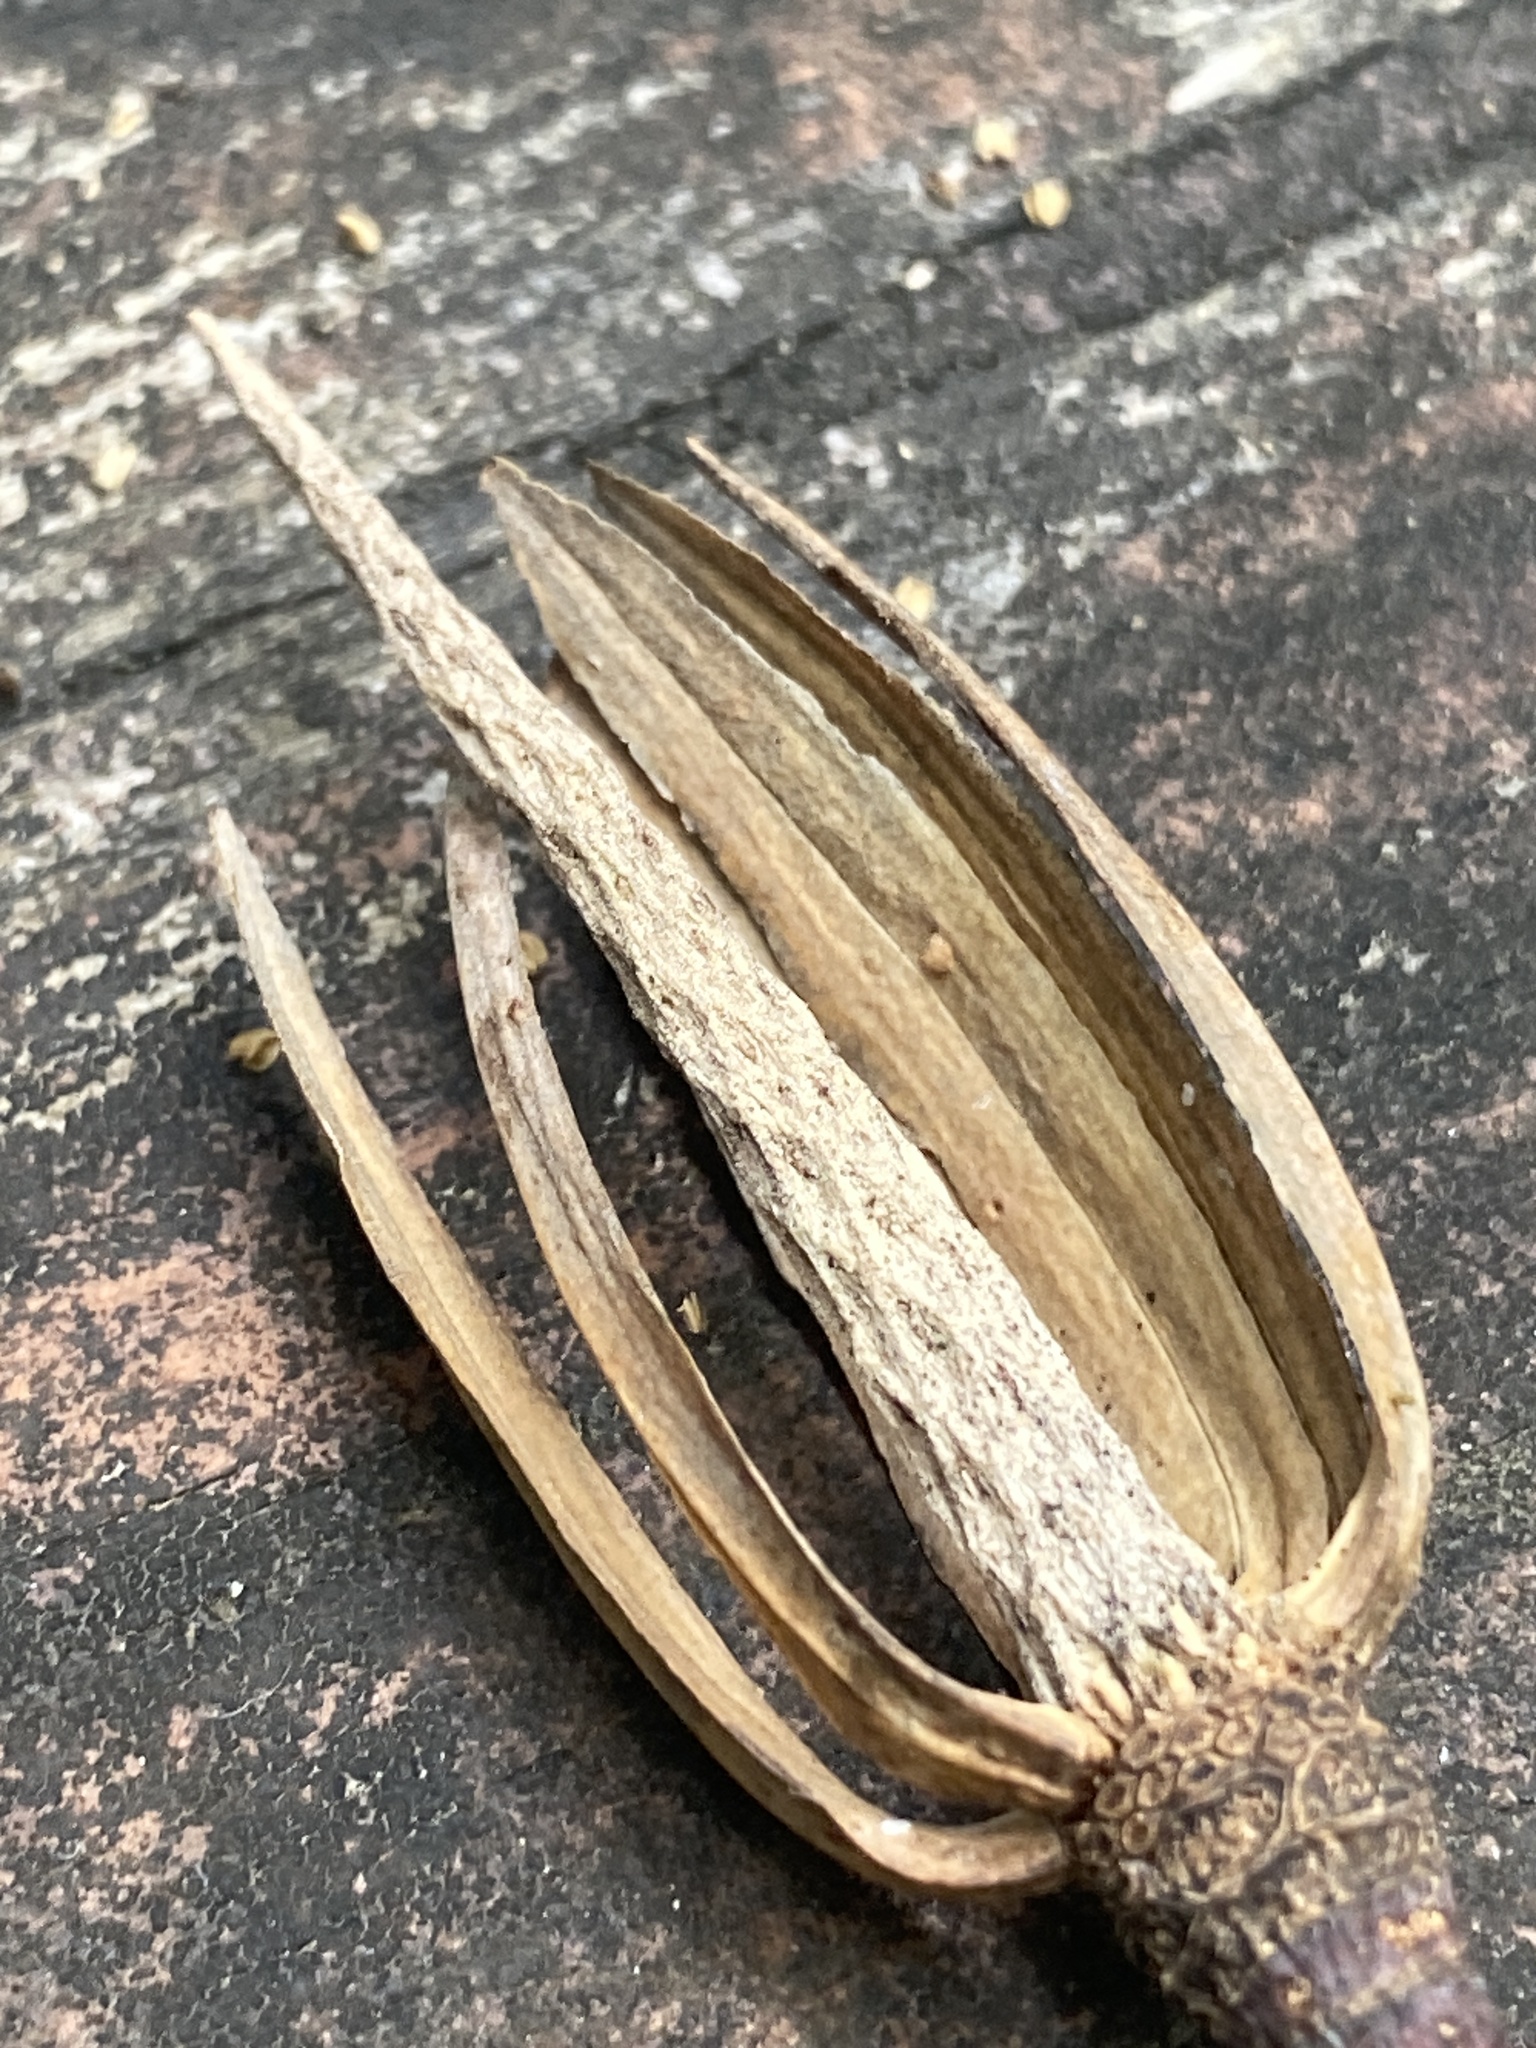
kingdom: Plantae
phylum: Tracheophyta
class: Magnoliopsida
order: Magnoliales
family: Magnoliaceae
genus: Liriodendron
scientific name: Liriodendron tulipifera
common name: Tulip tree
